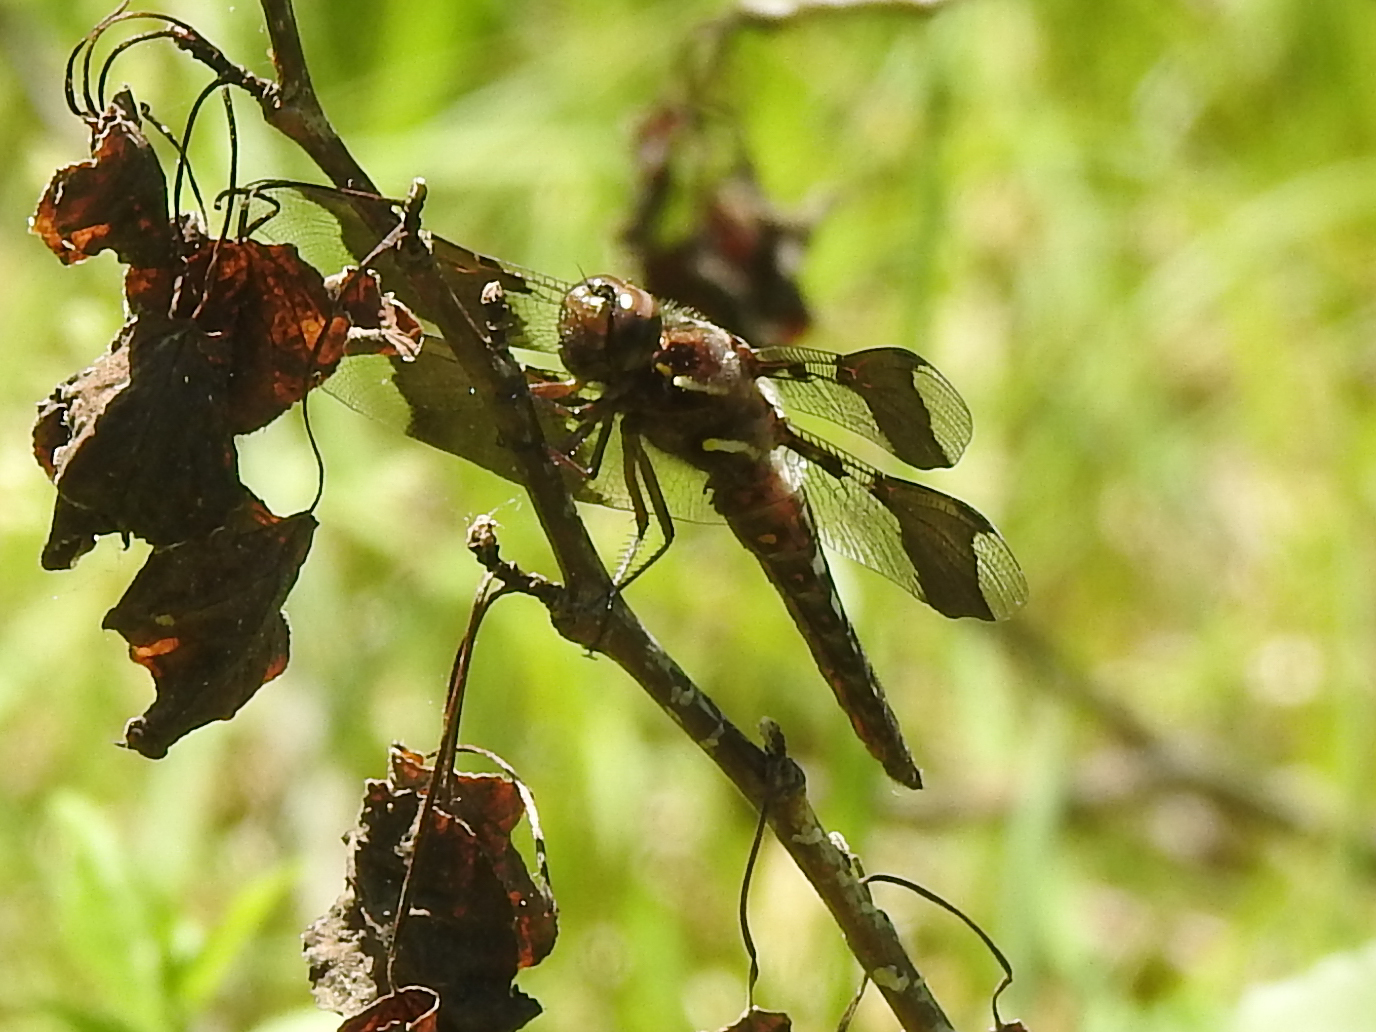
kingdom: Animalia
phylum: Arthropoda
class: Insecta
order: Odonata
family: Libellulidae
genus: Plathemis
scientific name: Plathemis lydia
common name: Common whitetail
